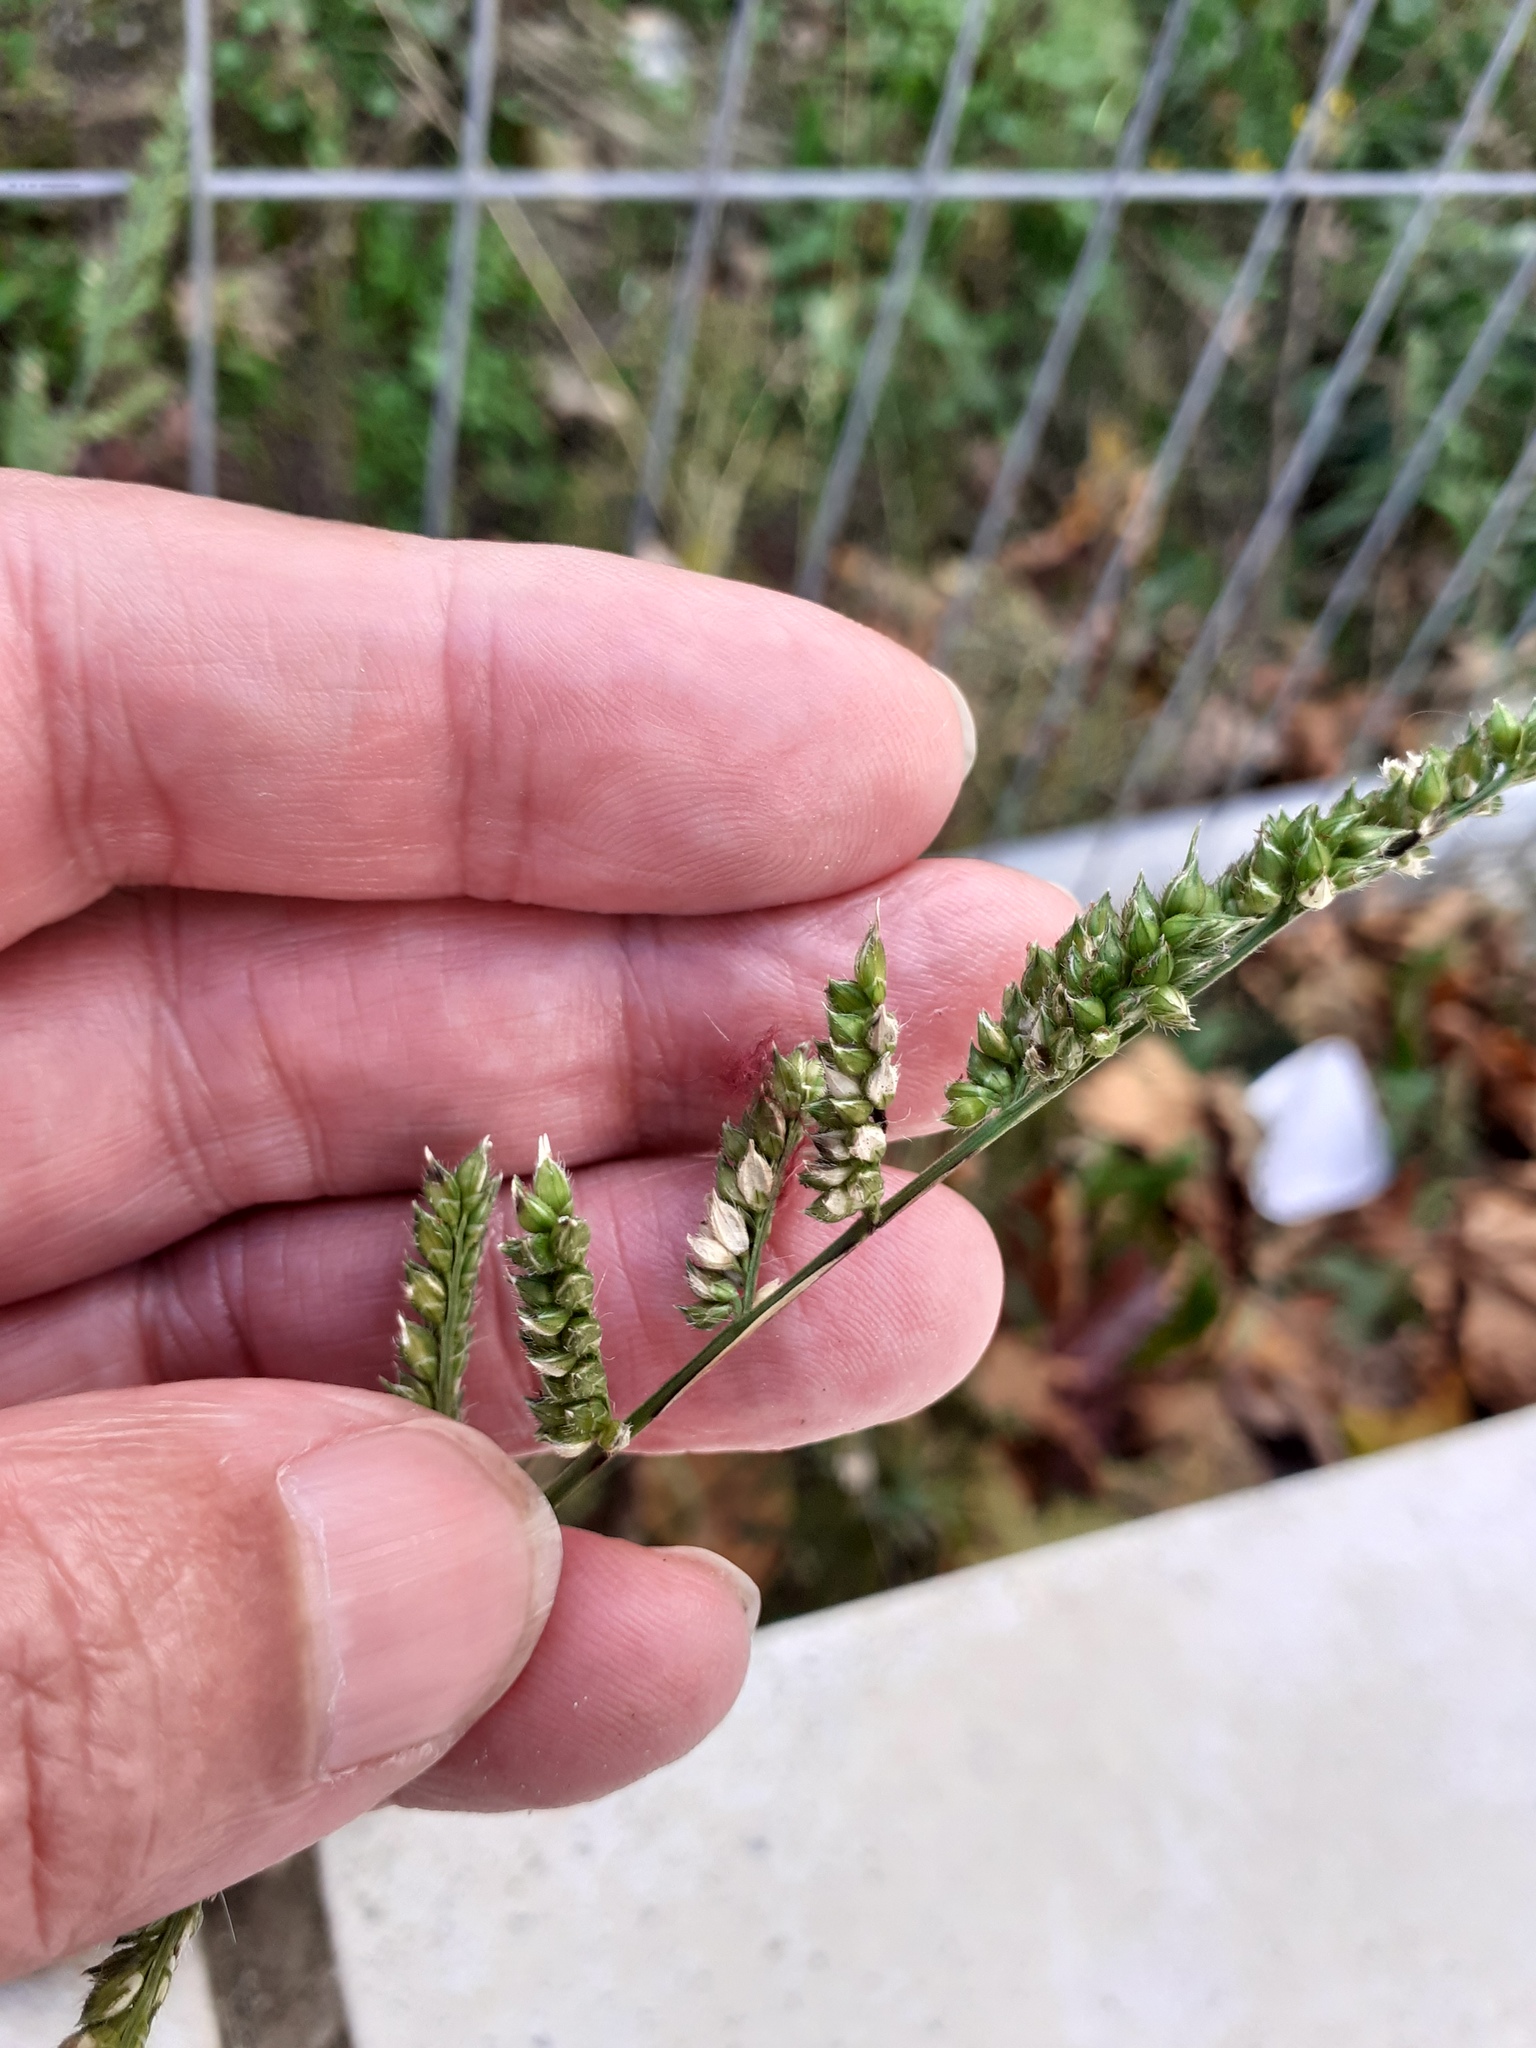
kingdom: Plantae
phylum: Tracheophyta
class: Liliopsida
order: Poales
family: Poaceae
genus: Echinochloa
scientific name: Echinochloa crus-galli
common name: Cockspur
